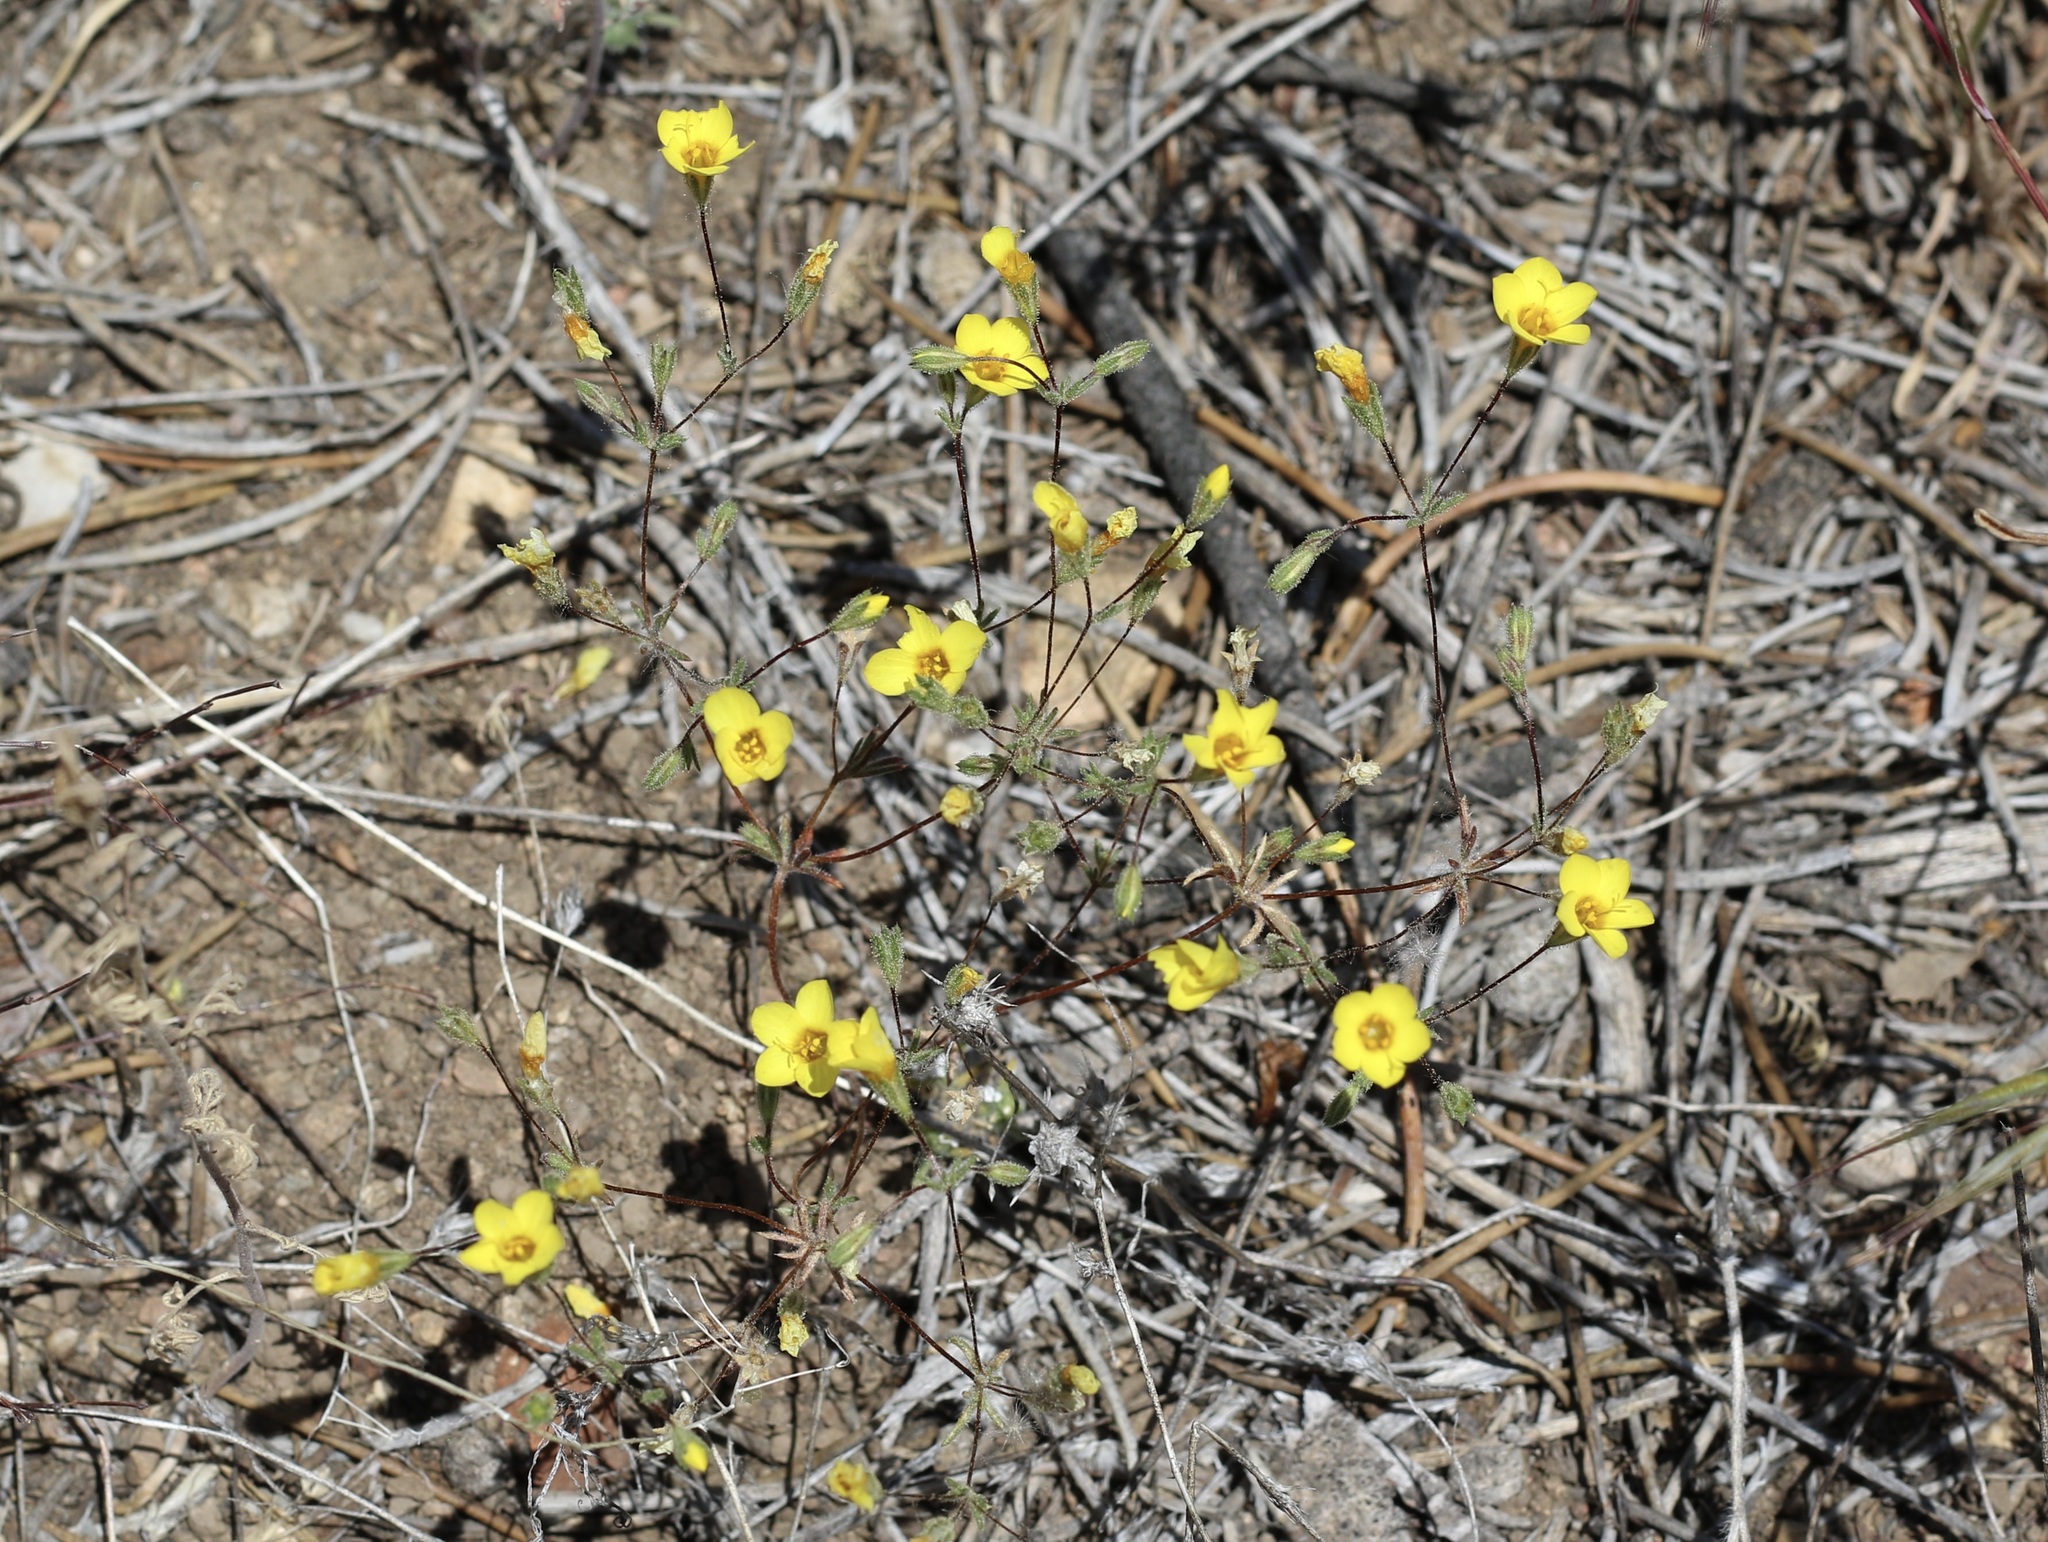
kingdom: Plantae
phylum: Tracheophyta
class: Magnoliopsida
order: Ericales
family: Polemoniaceae
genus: Leptosiphon
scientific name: Leptosiphon chrysanthus
